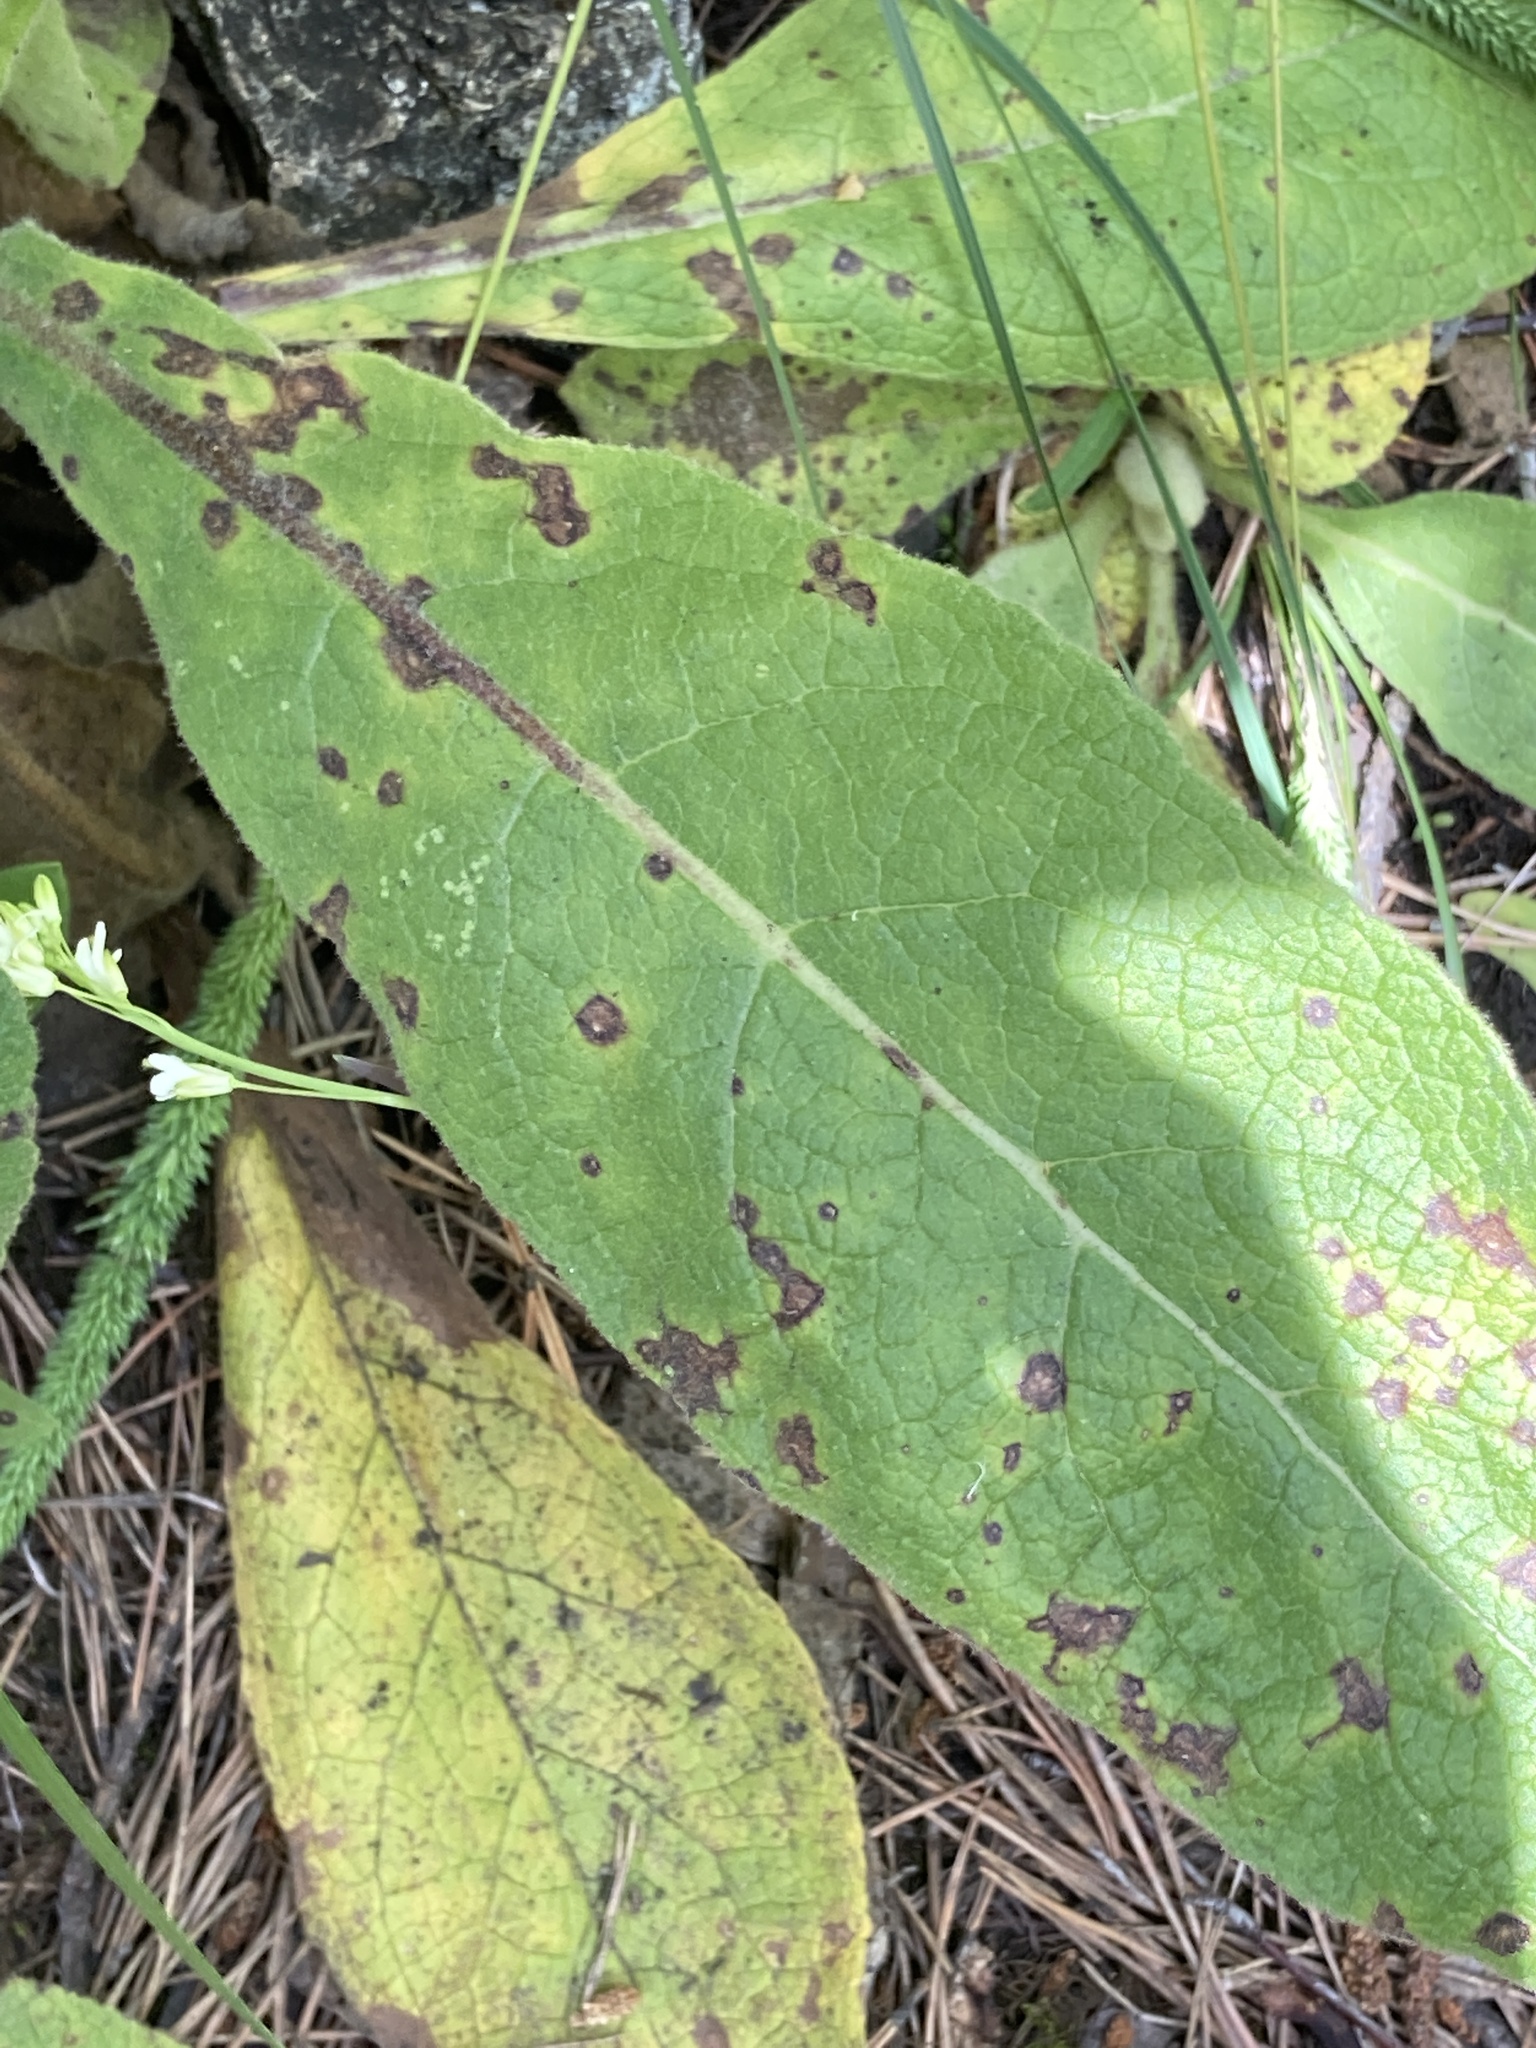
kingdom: Plantae
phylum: Tracheophyta
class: Magnoliopsida
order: Lamiales
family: Scrophulariaceae
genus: Verbascum
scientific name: Verbascum thapsus
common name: Common mullein
